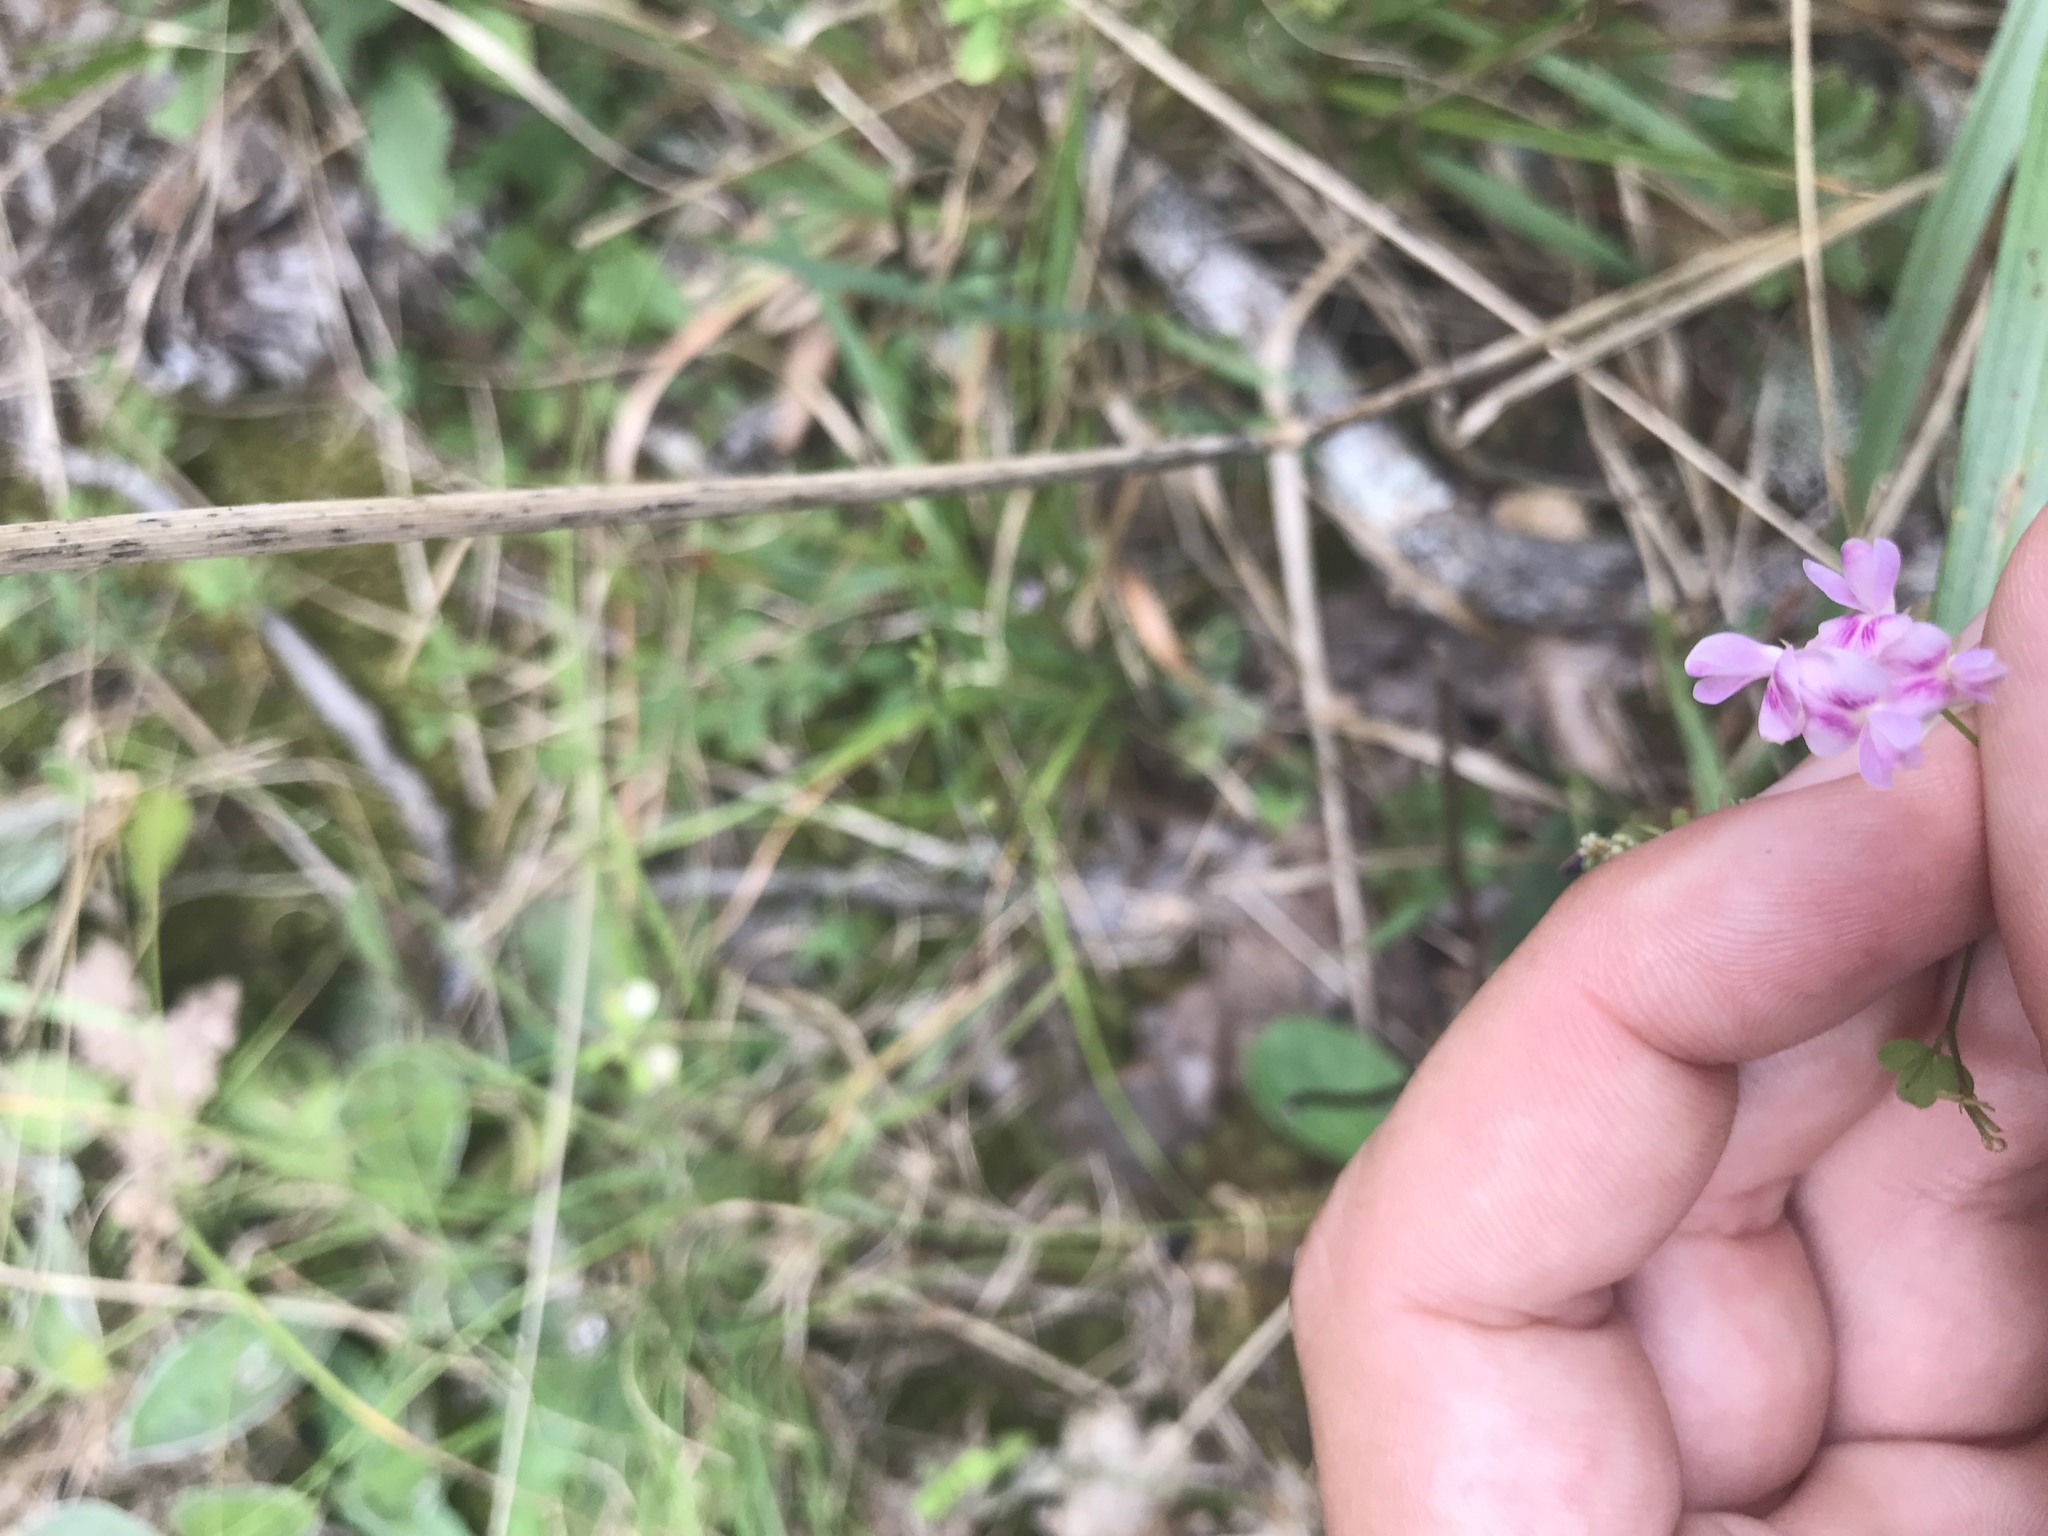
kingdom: Plantae
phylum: Tracheophyta
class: Magnoliopsida
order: Fabales
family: Fabaceae
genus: Lespedeza
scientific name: Lespedeza repens
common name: Creeping bush-clover
